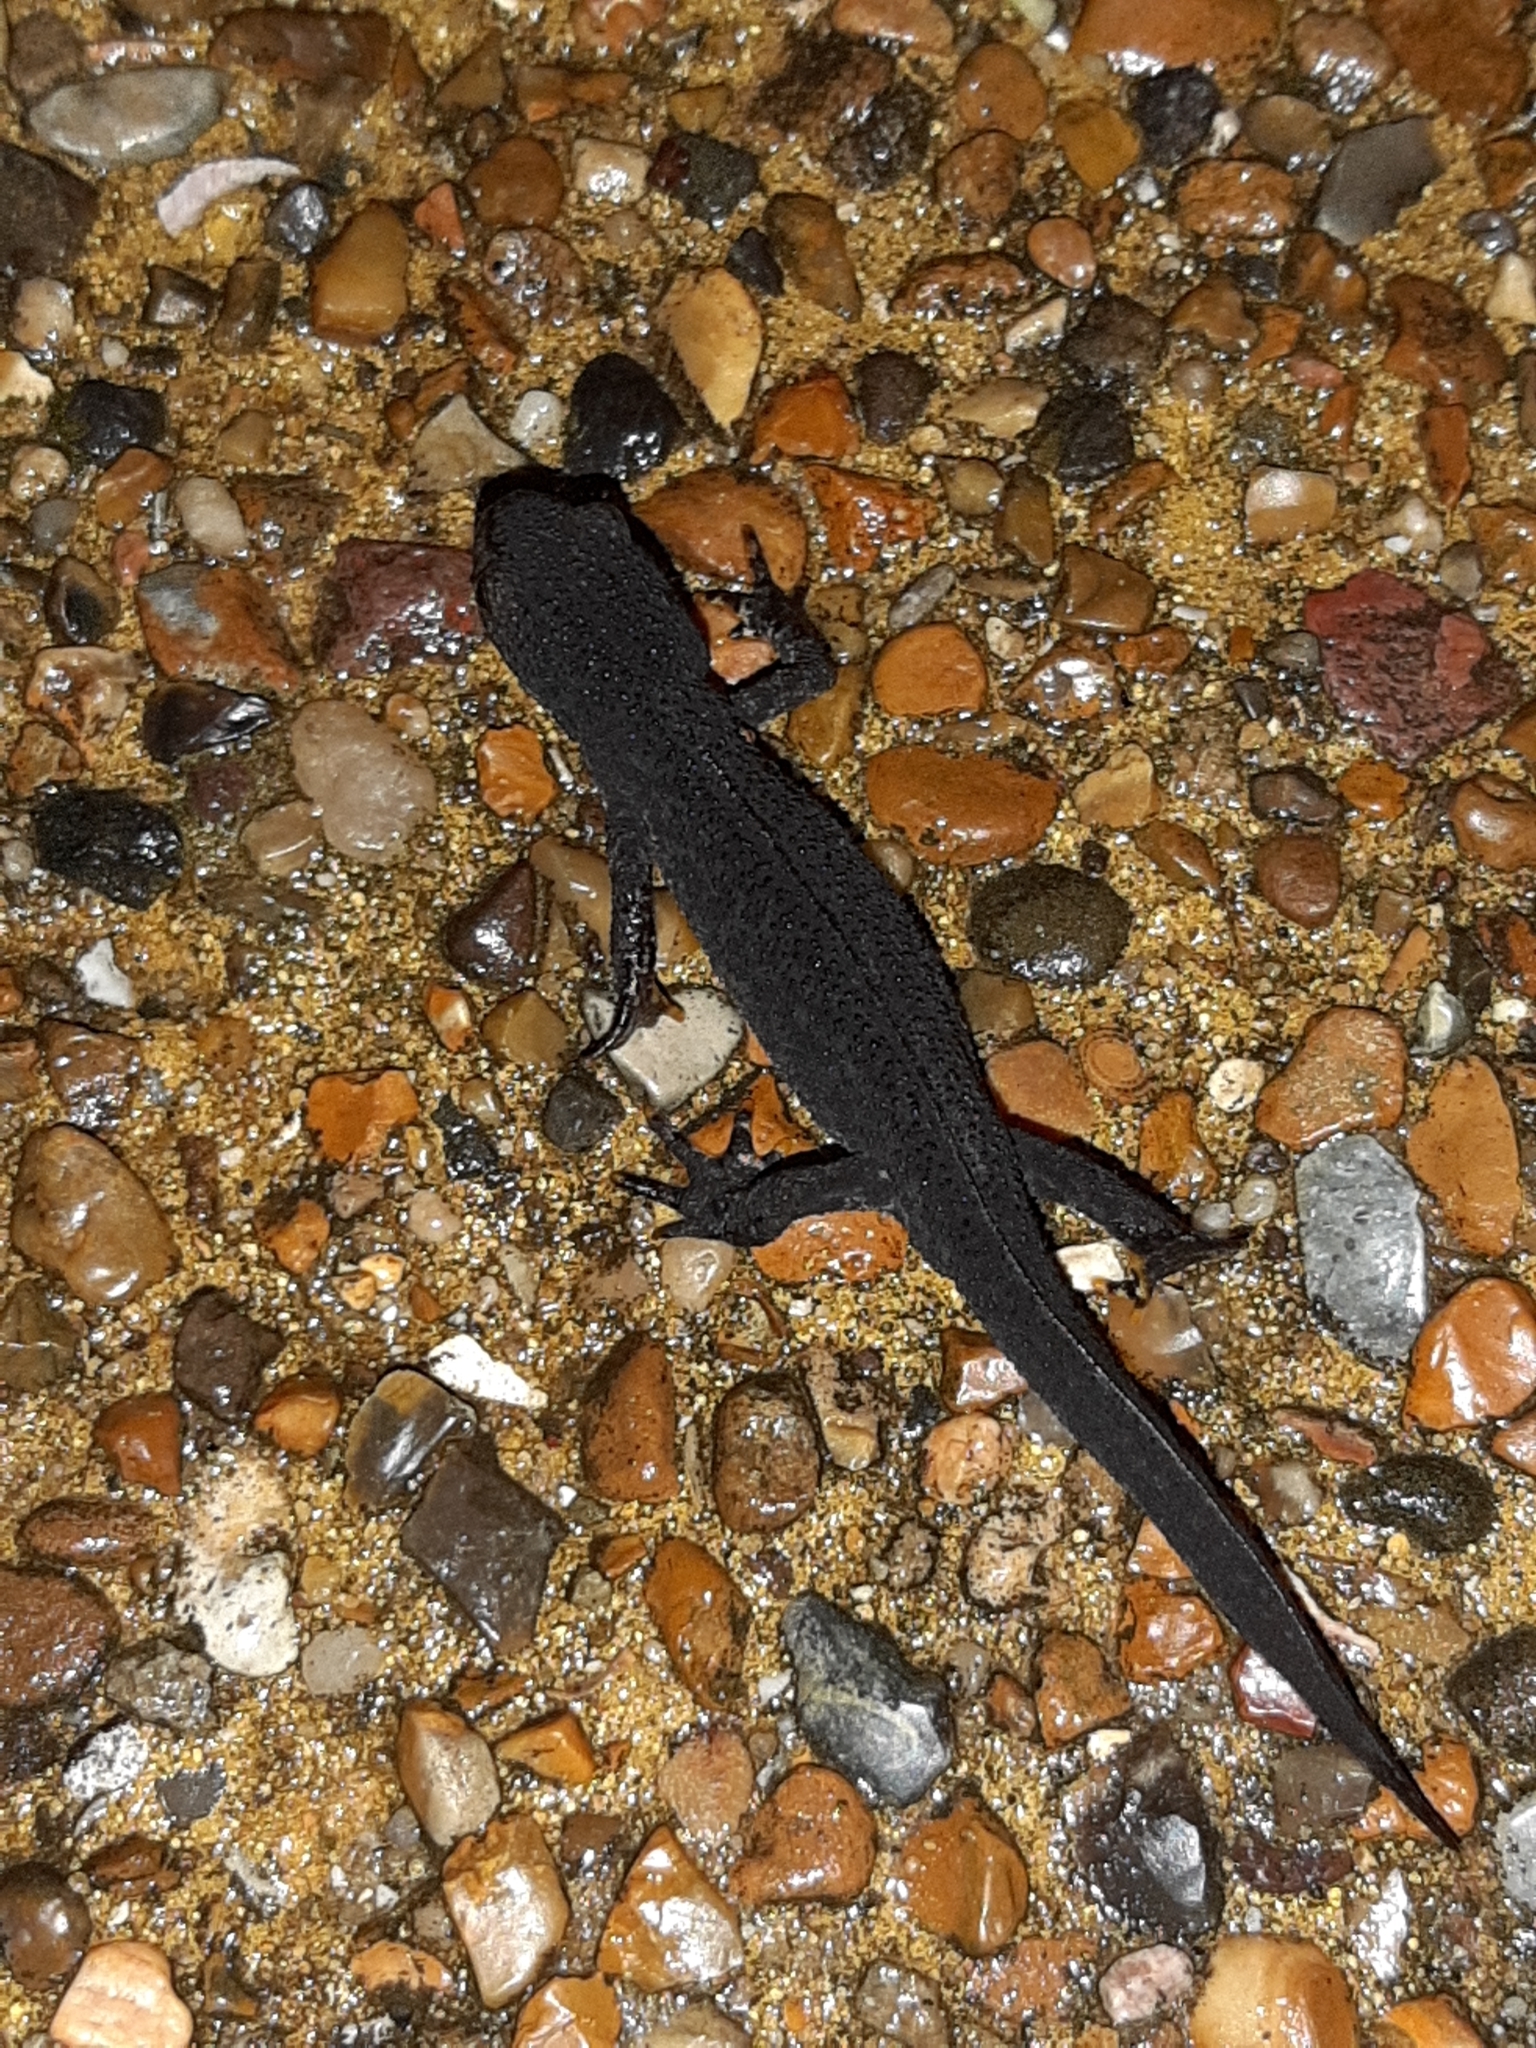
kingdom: Animalia
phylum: Chordata
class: Amphibia
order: Caudata
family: Salamandridae
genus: Ichthyosaura
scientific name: Ichthyosaura alpestris
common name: Alpine newt
